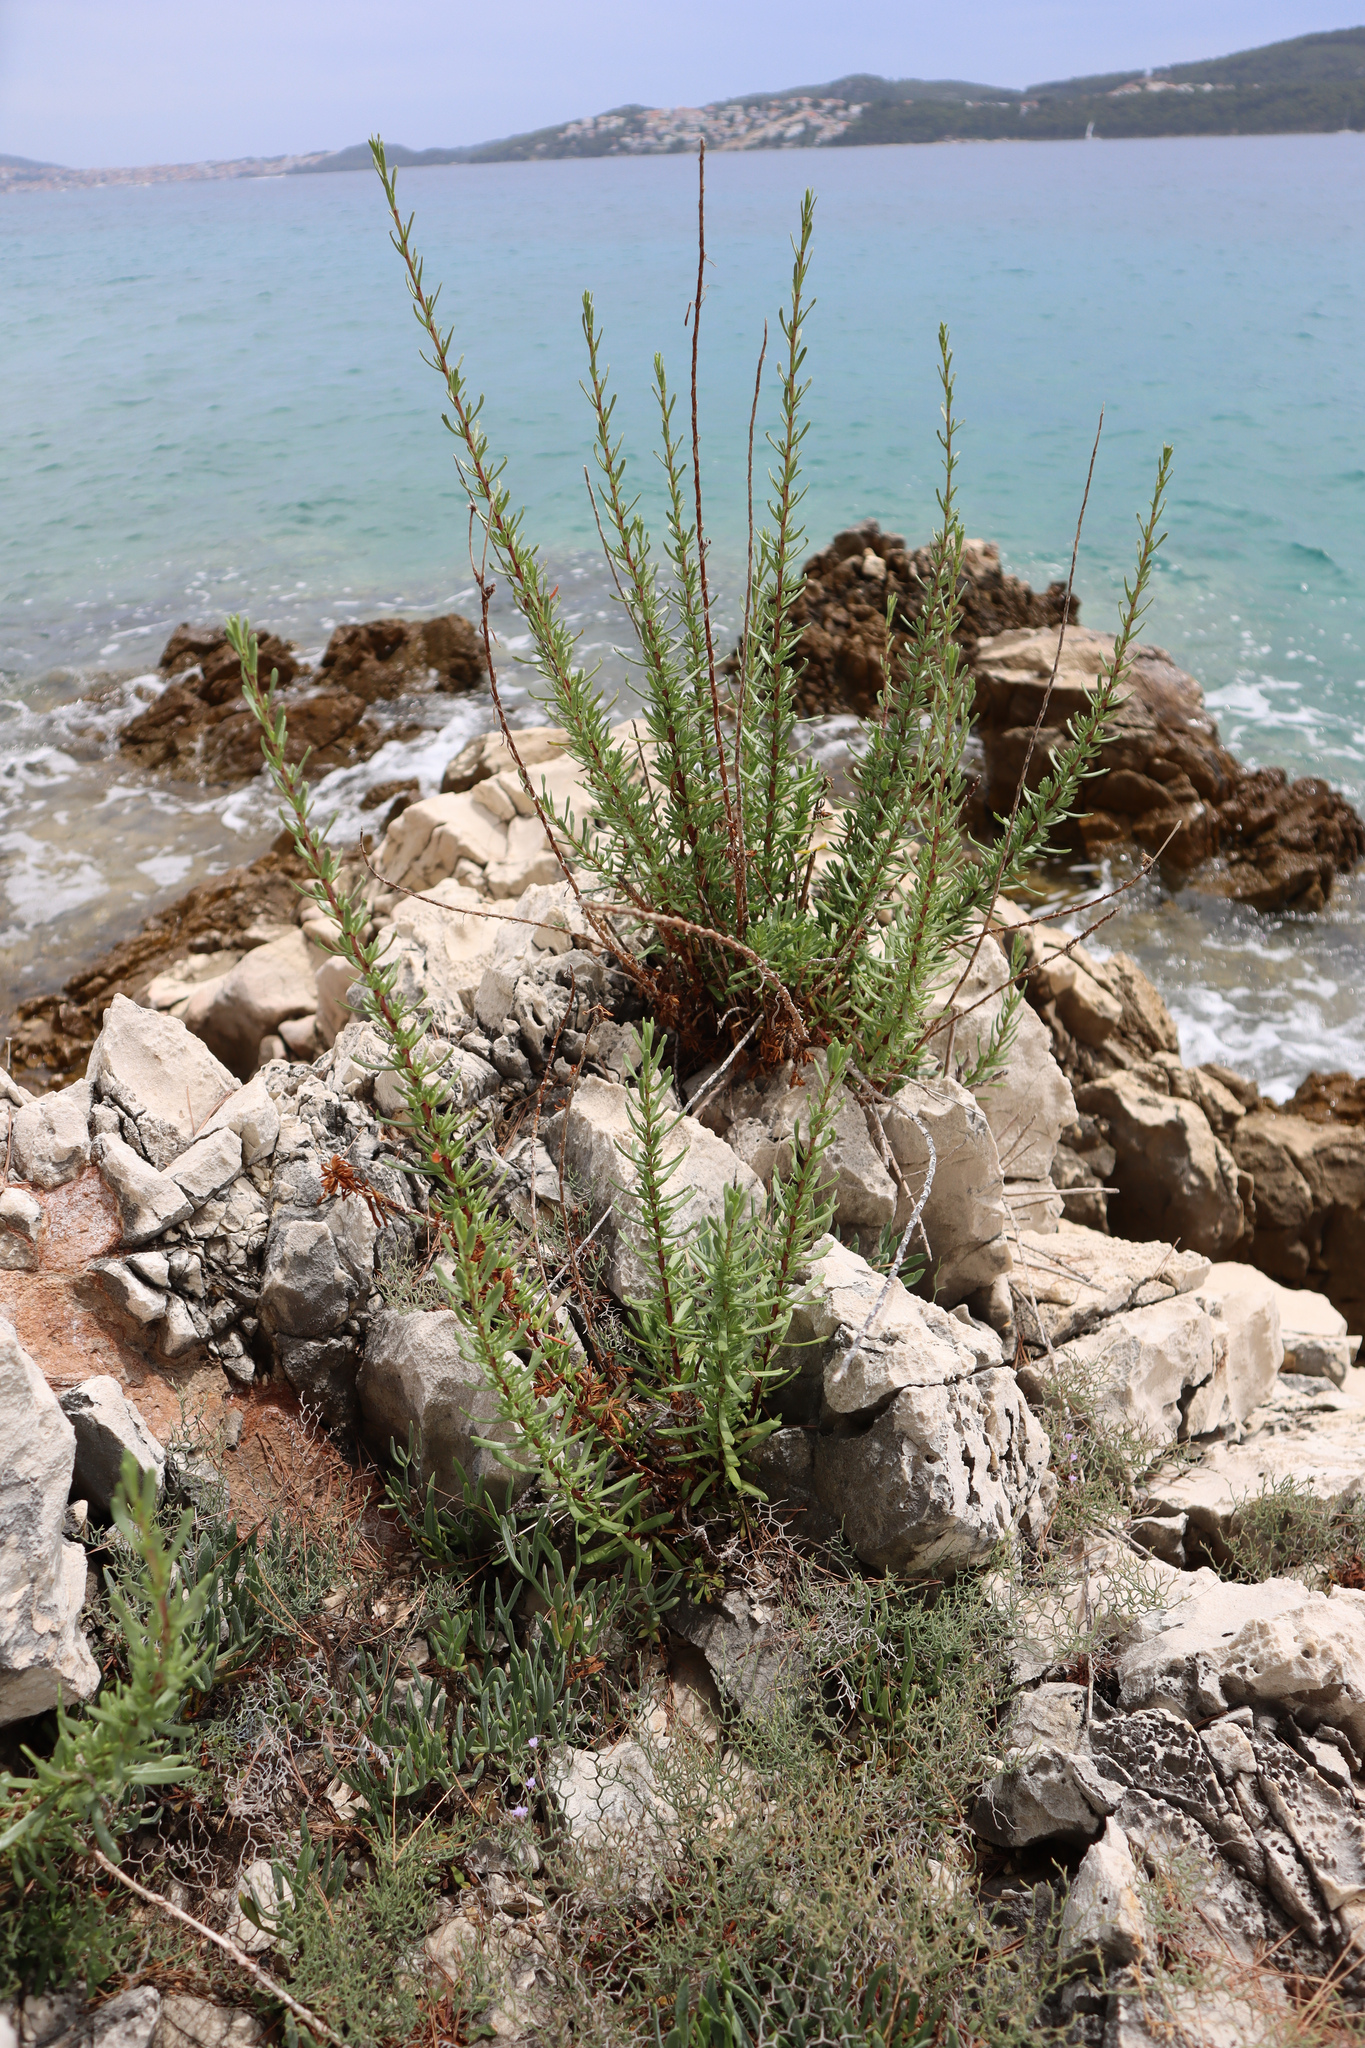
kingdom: Plantae
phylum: Tracheophyta
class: Magnoliopsida
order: Asterales
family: Asteraceae
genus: Limbarda
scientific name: Limbarda crithmoides
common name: Golden samphire
